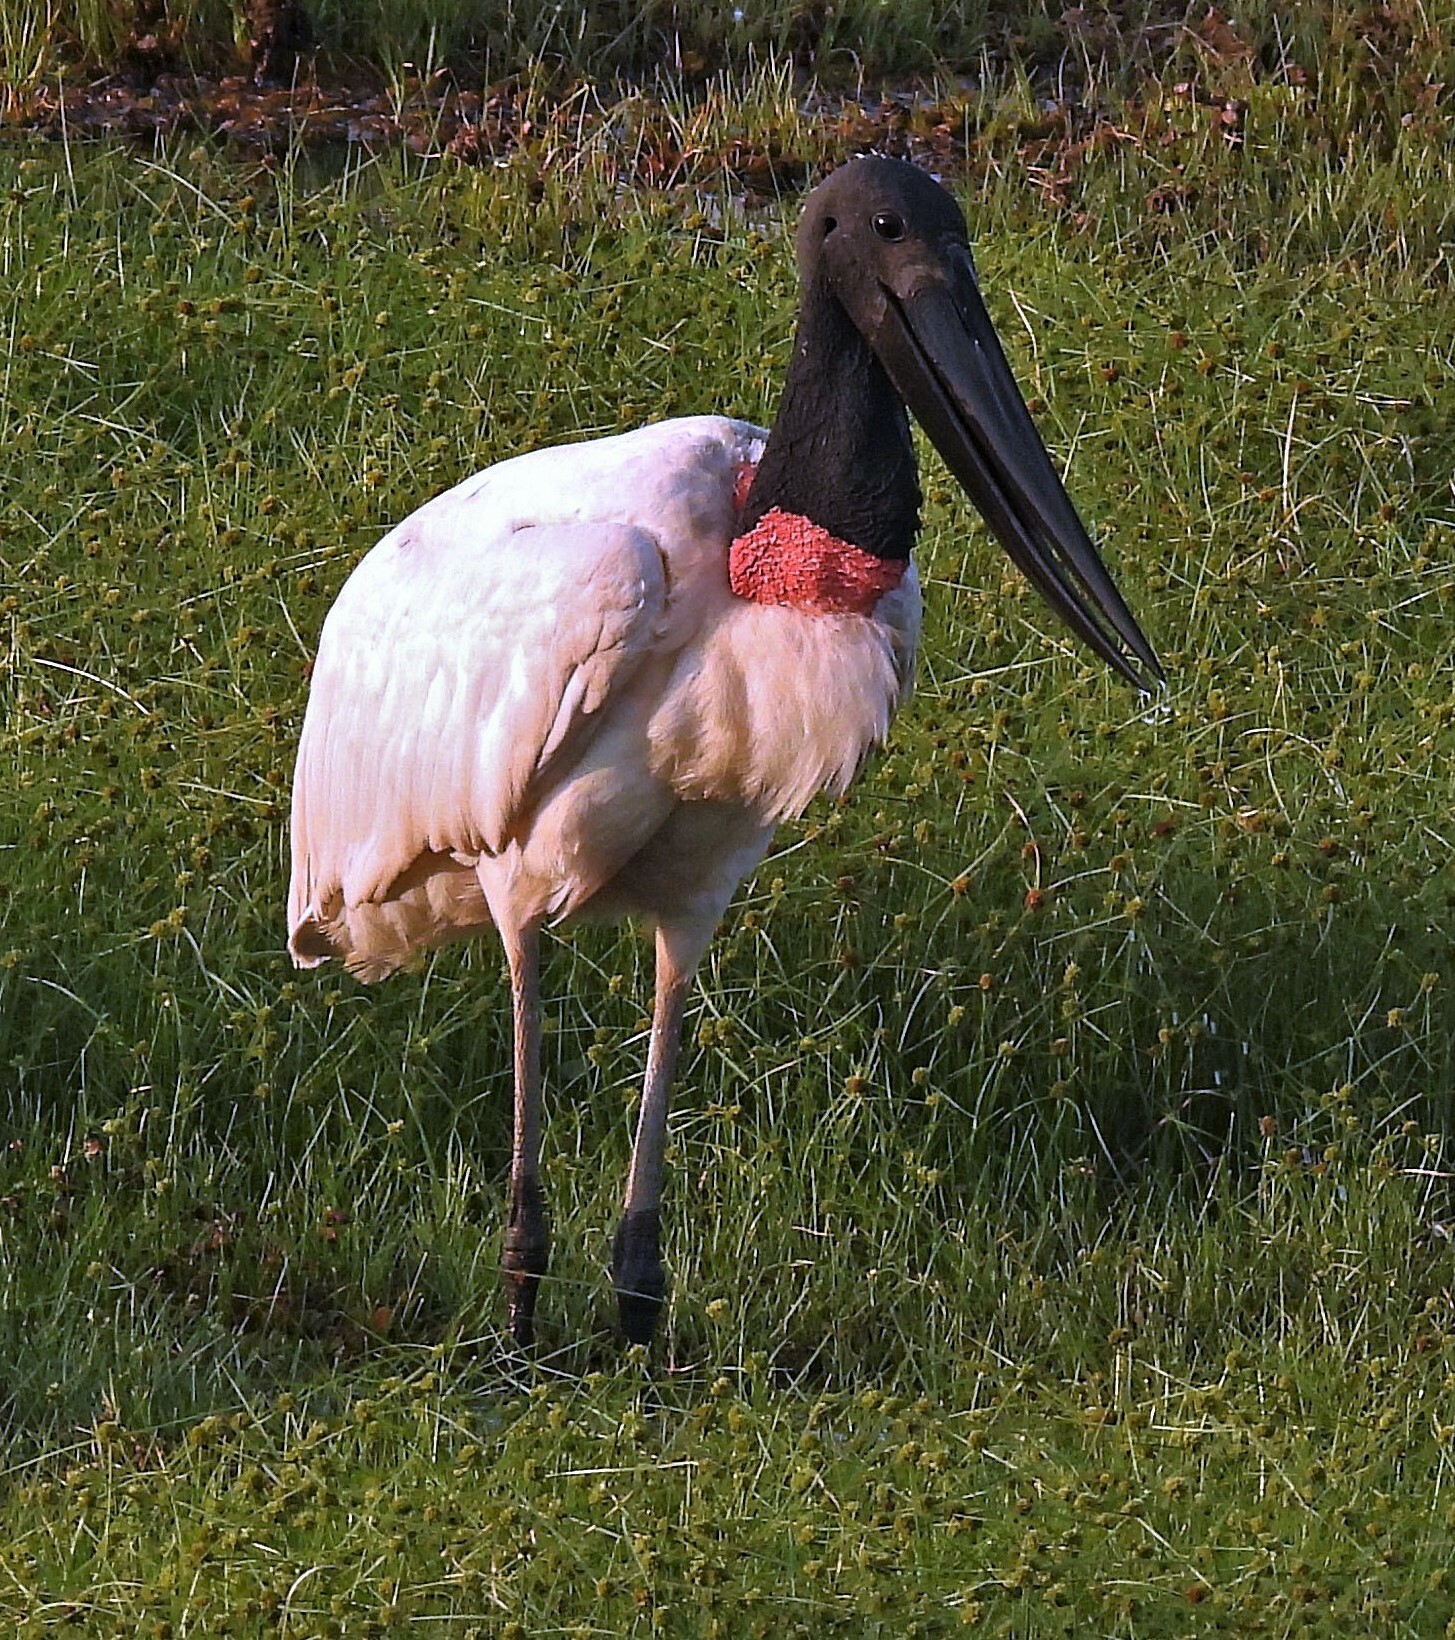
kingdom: Animalia
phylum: Chordata
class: Aves
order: Ciconiiformes
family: Ciconiidae
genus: Jabiru
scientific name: Jabiru mycteria
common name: Jabiru
